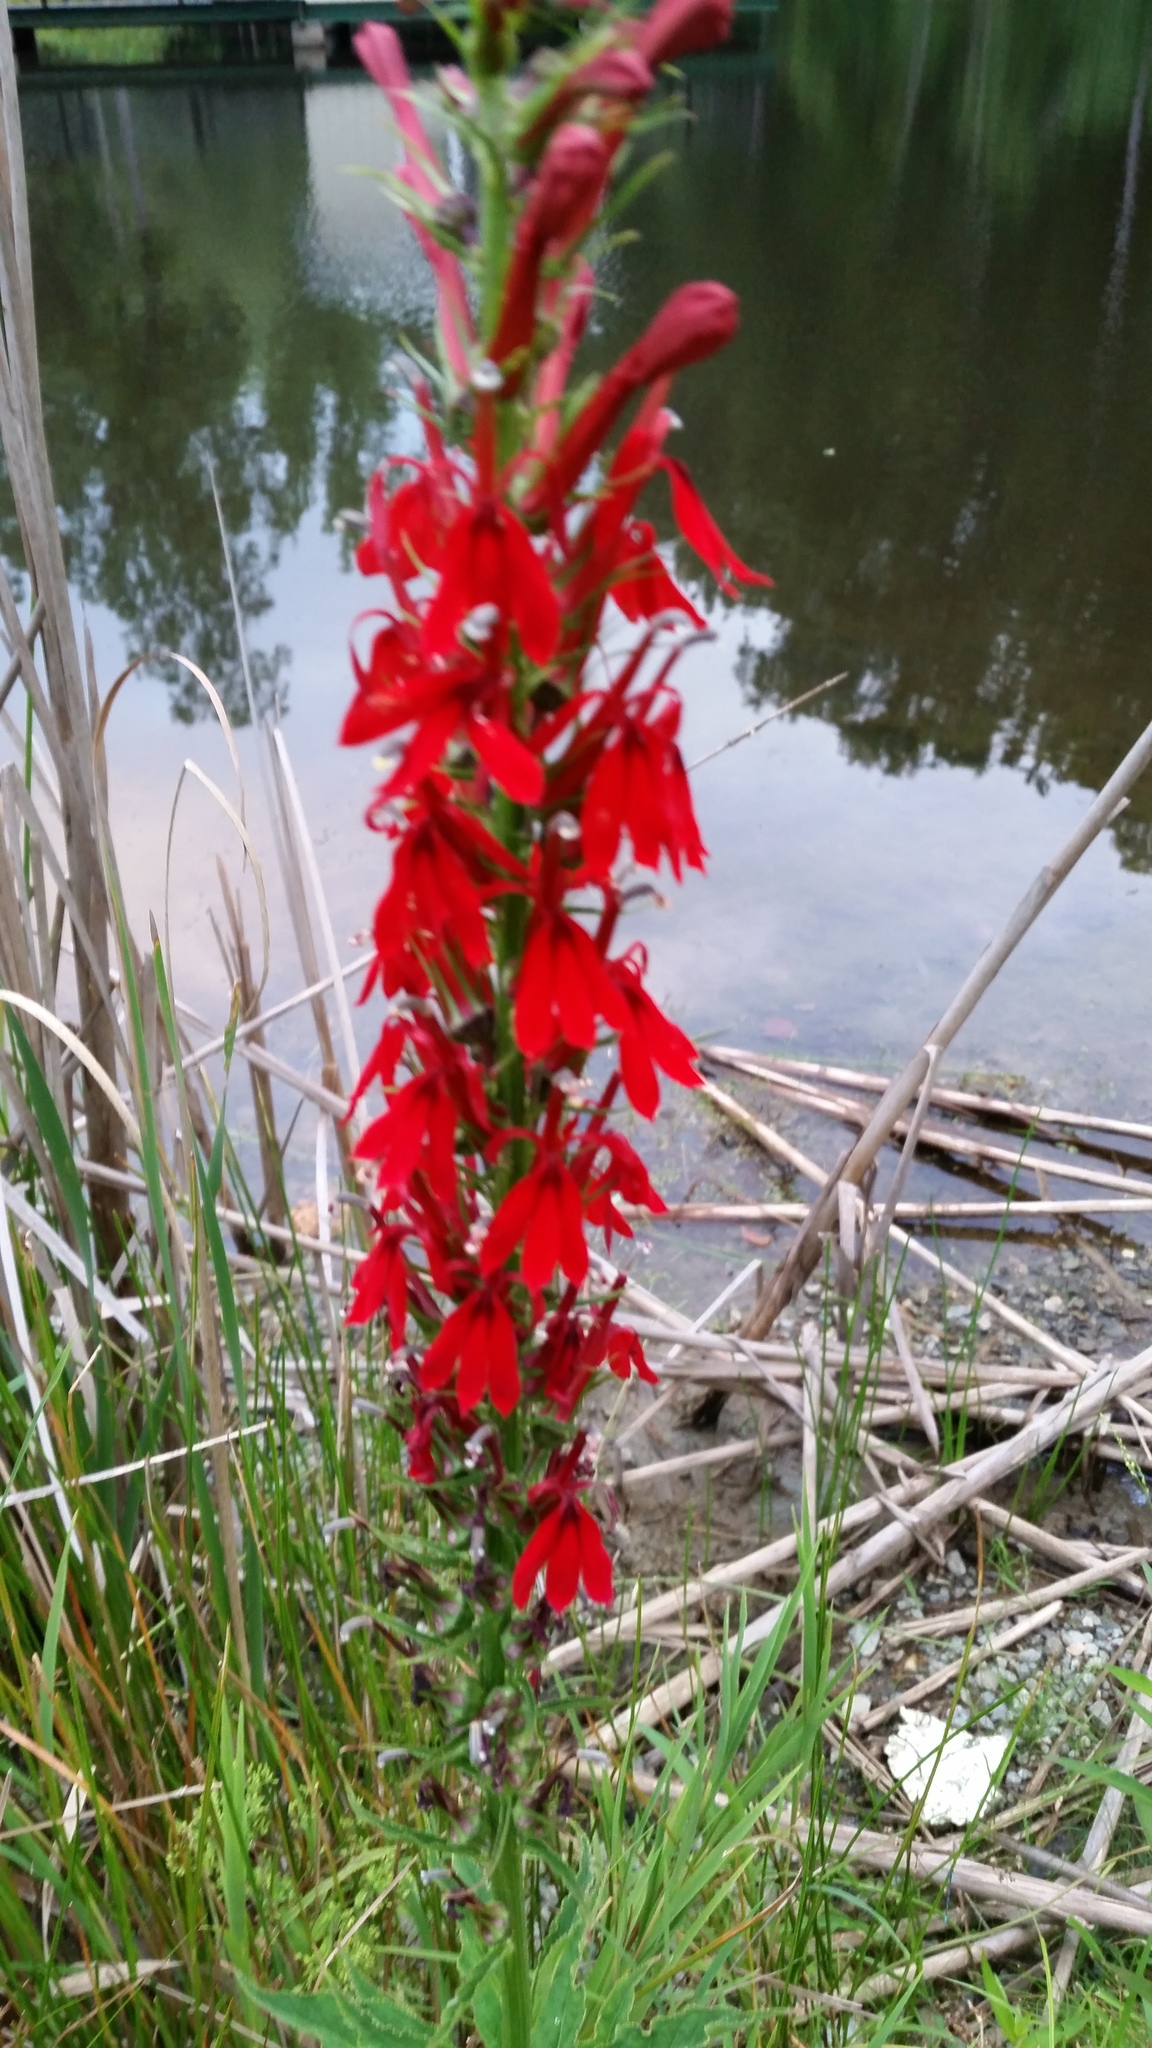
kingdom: Plantae
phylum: Tracheophyta
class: Magnoliopsida
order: Asterales
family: Campanulaceae
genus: Lobelia
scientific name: Lobelia cardinalis
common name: Cardinal flower
